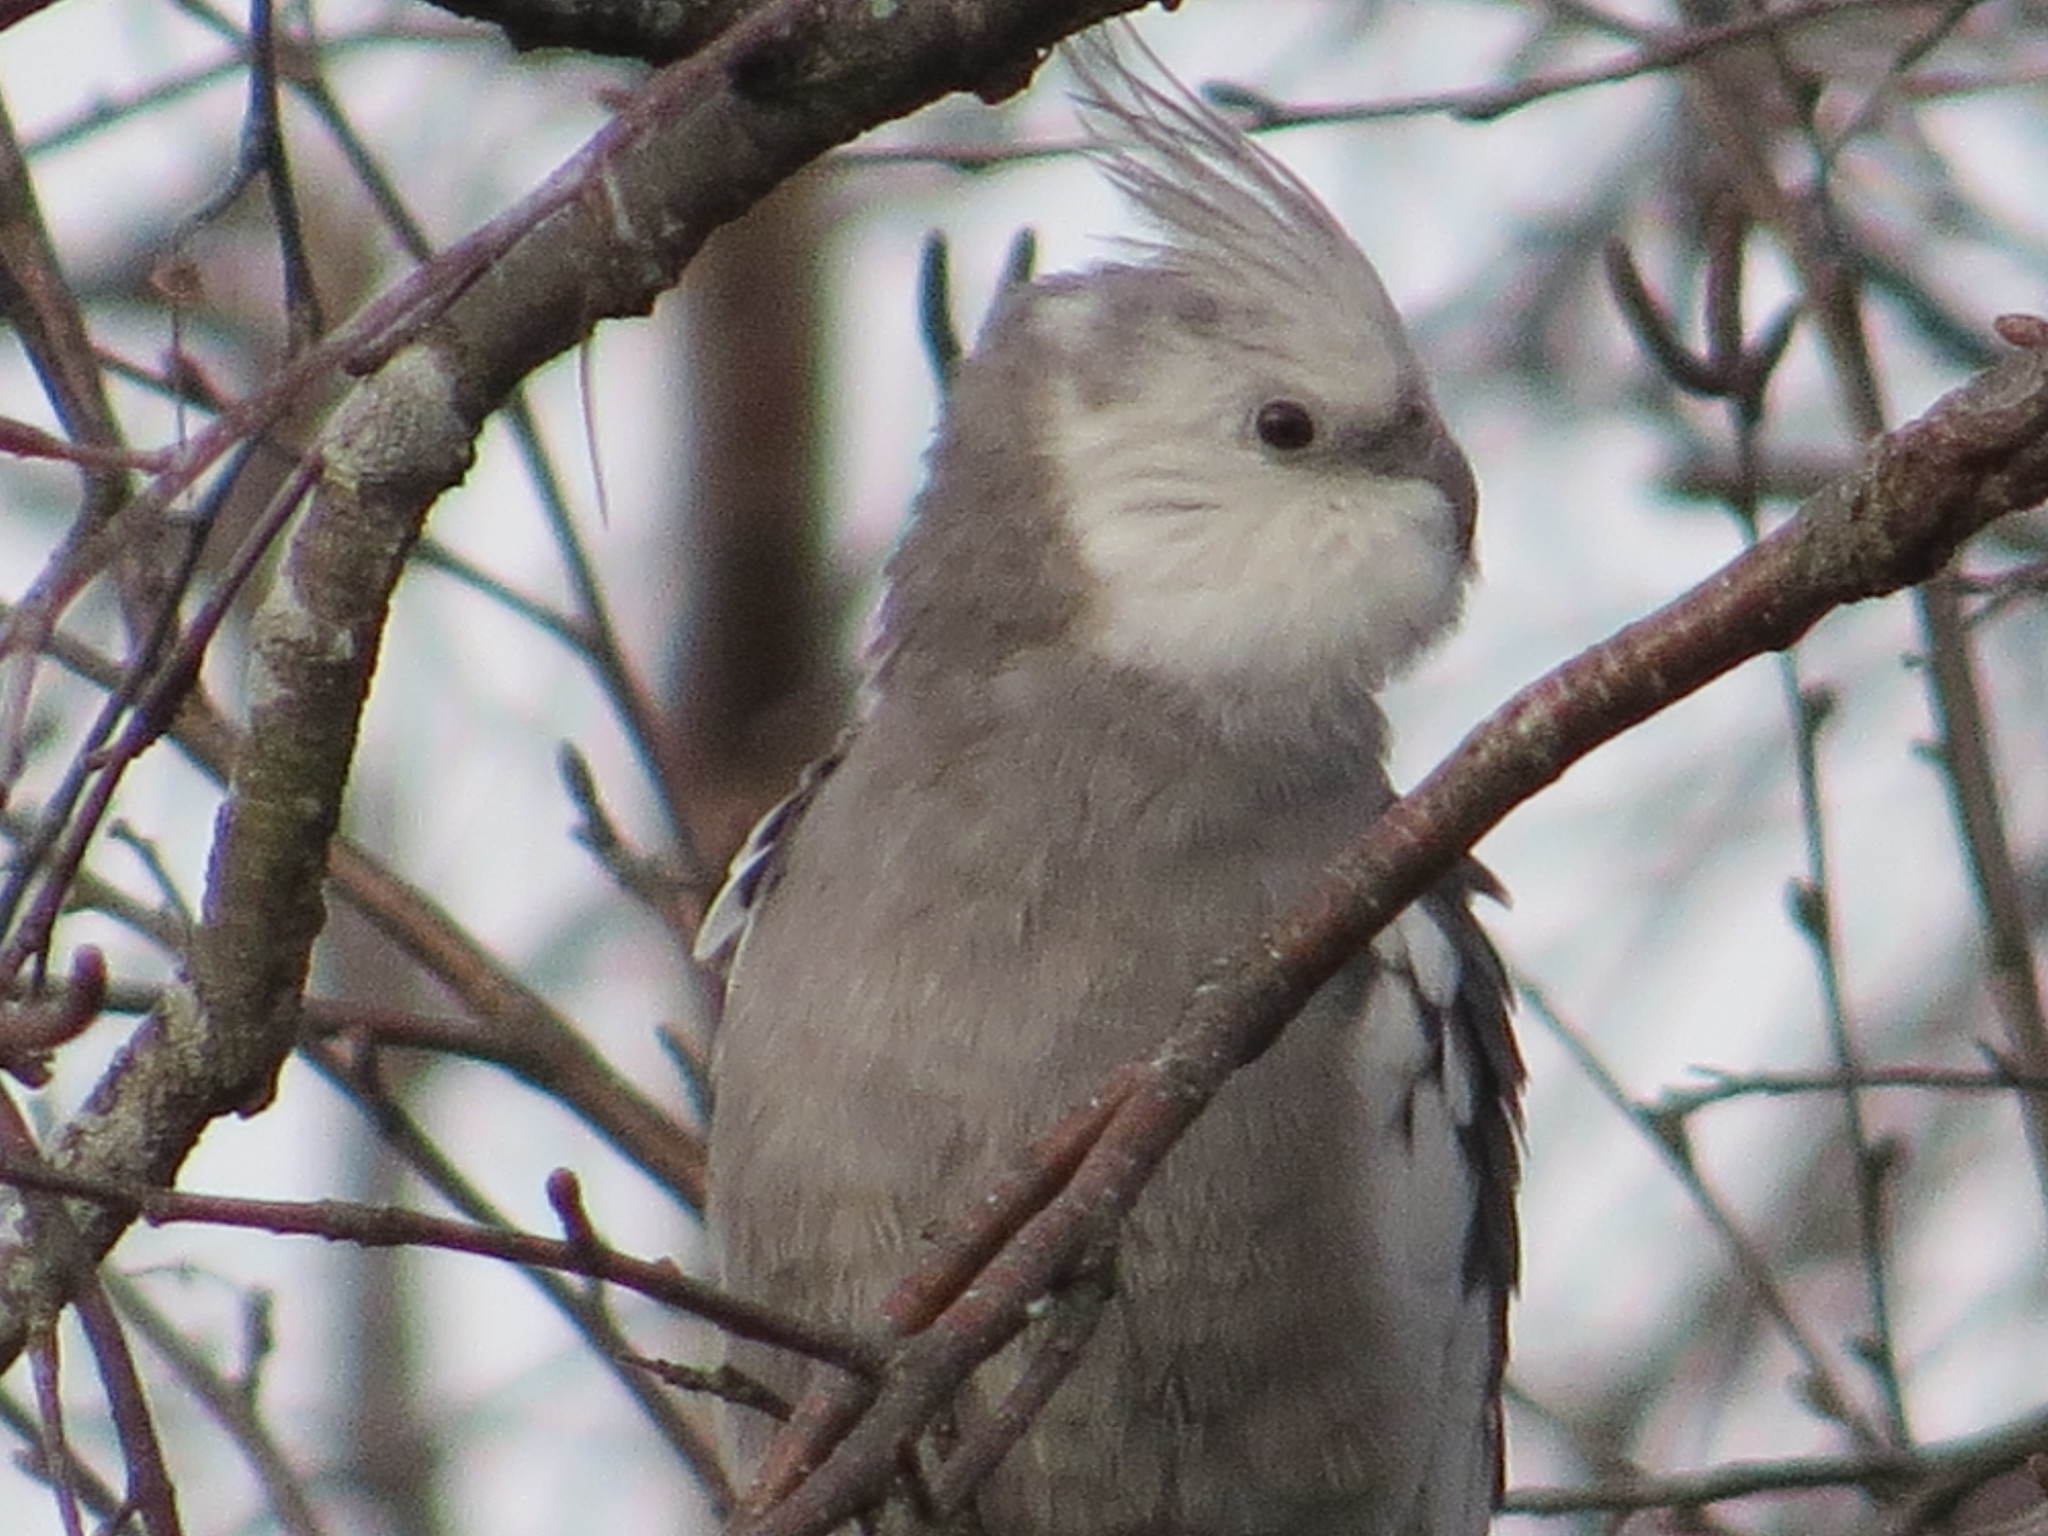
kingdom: Animalia
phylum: Chordata
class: Aves
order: Psittaciformes
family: Psittacidae
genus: Nymphicus
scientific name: Nymphicus hollandicus
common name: Cockatiel
